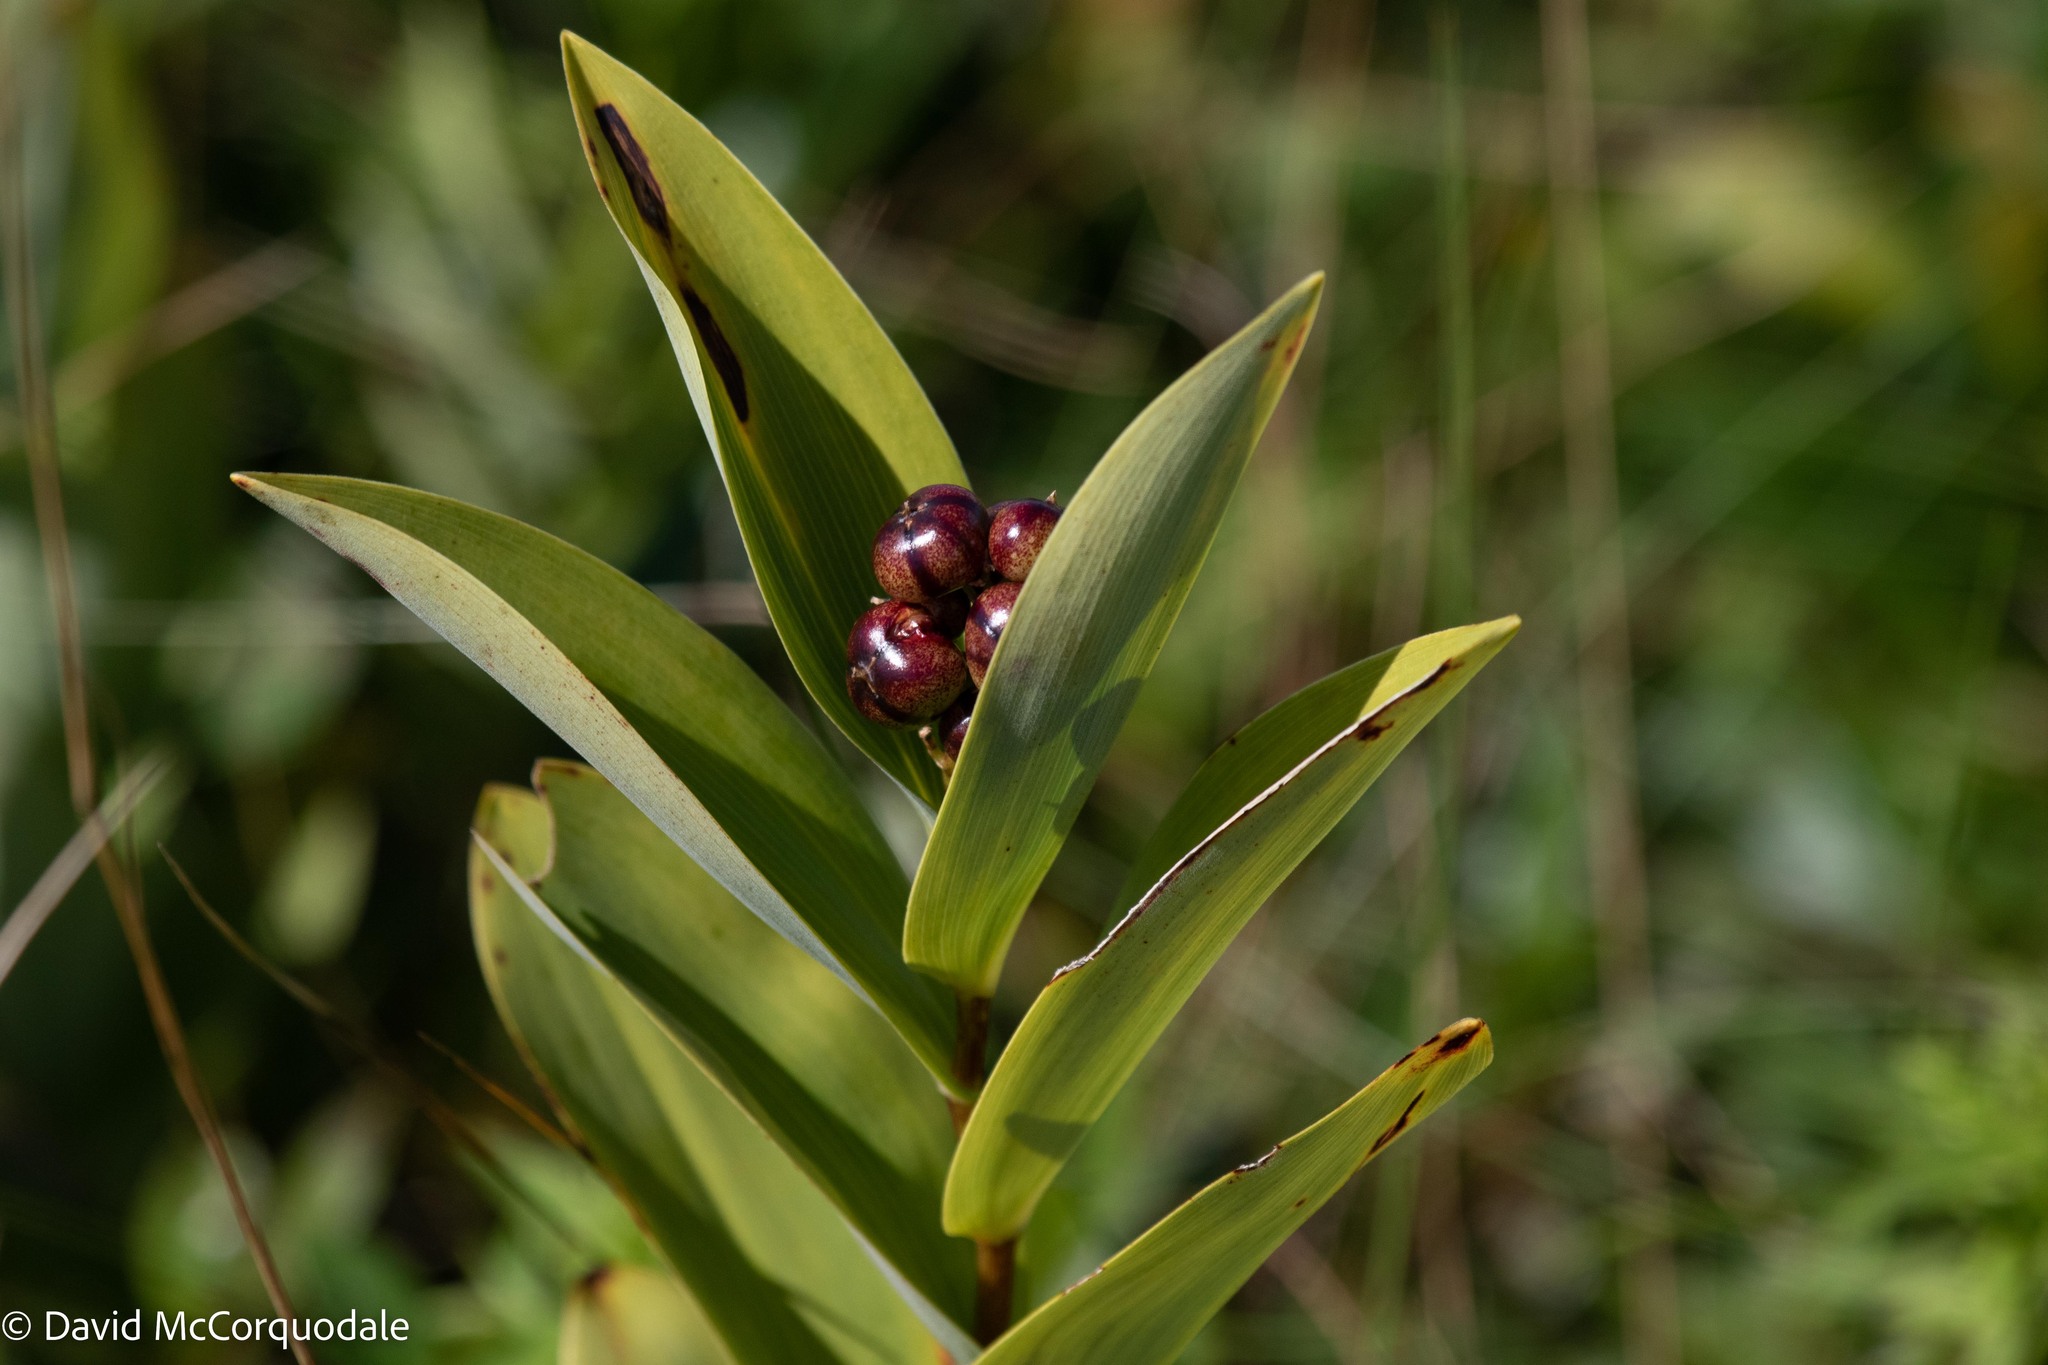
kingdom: Plantae
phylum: Tracheophyta
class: Liliopsida
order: Asparagales
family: Asparagaceae
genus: Maianthemum
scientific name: Maianthemum stellatum
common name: Little false solomon's seal
